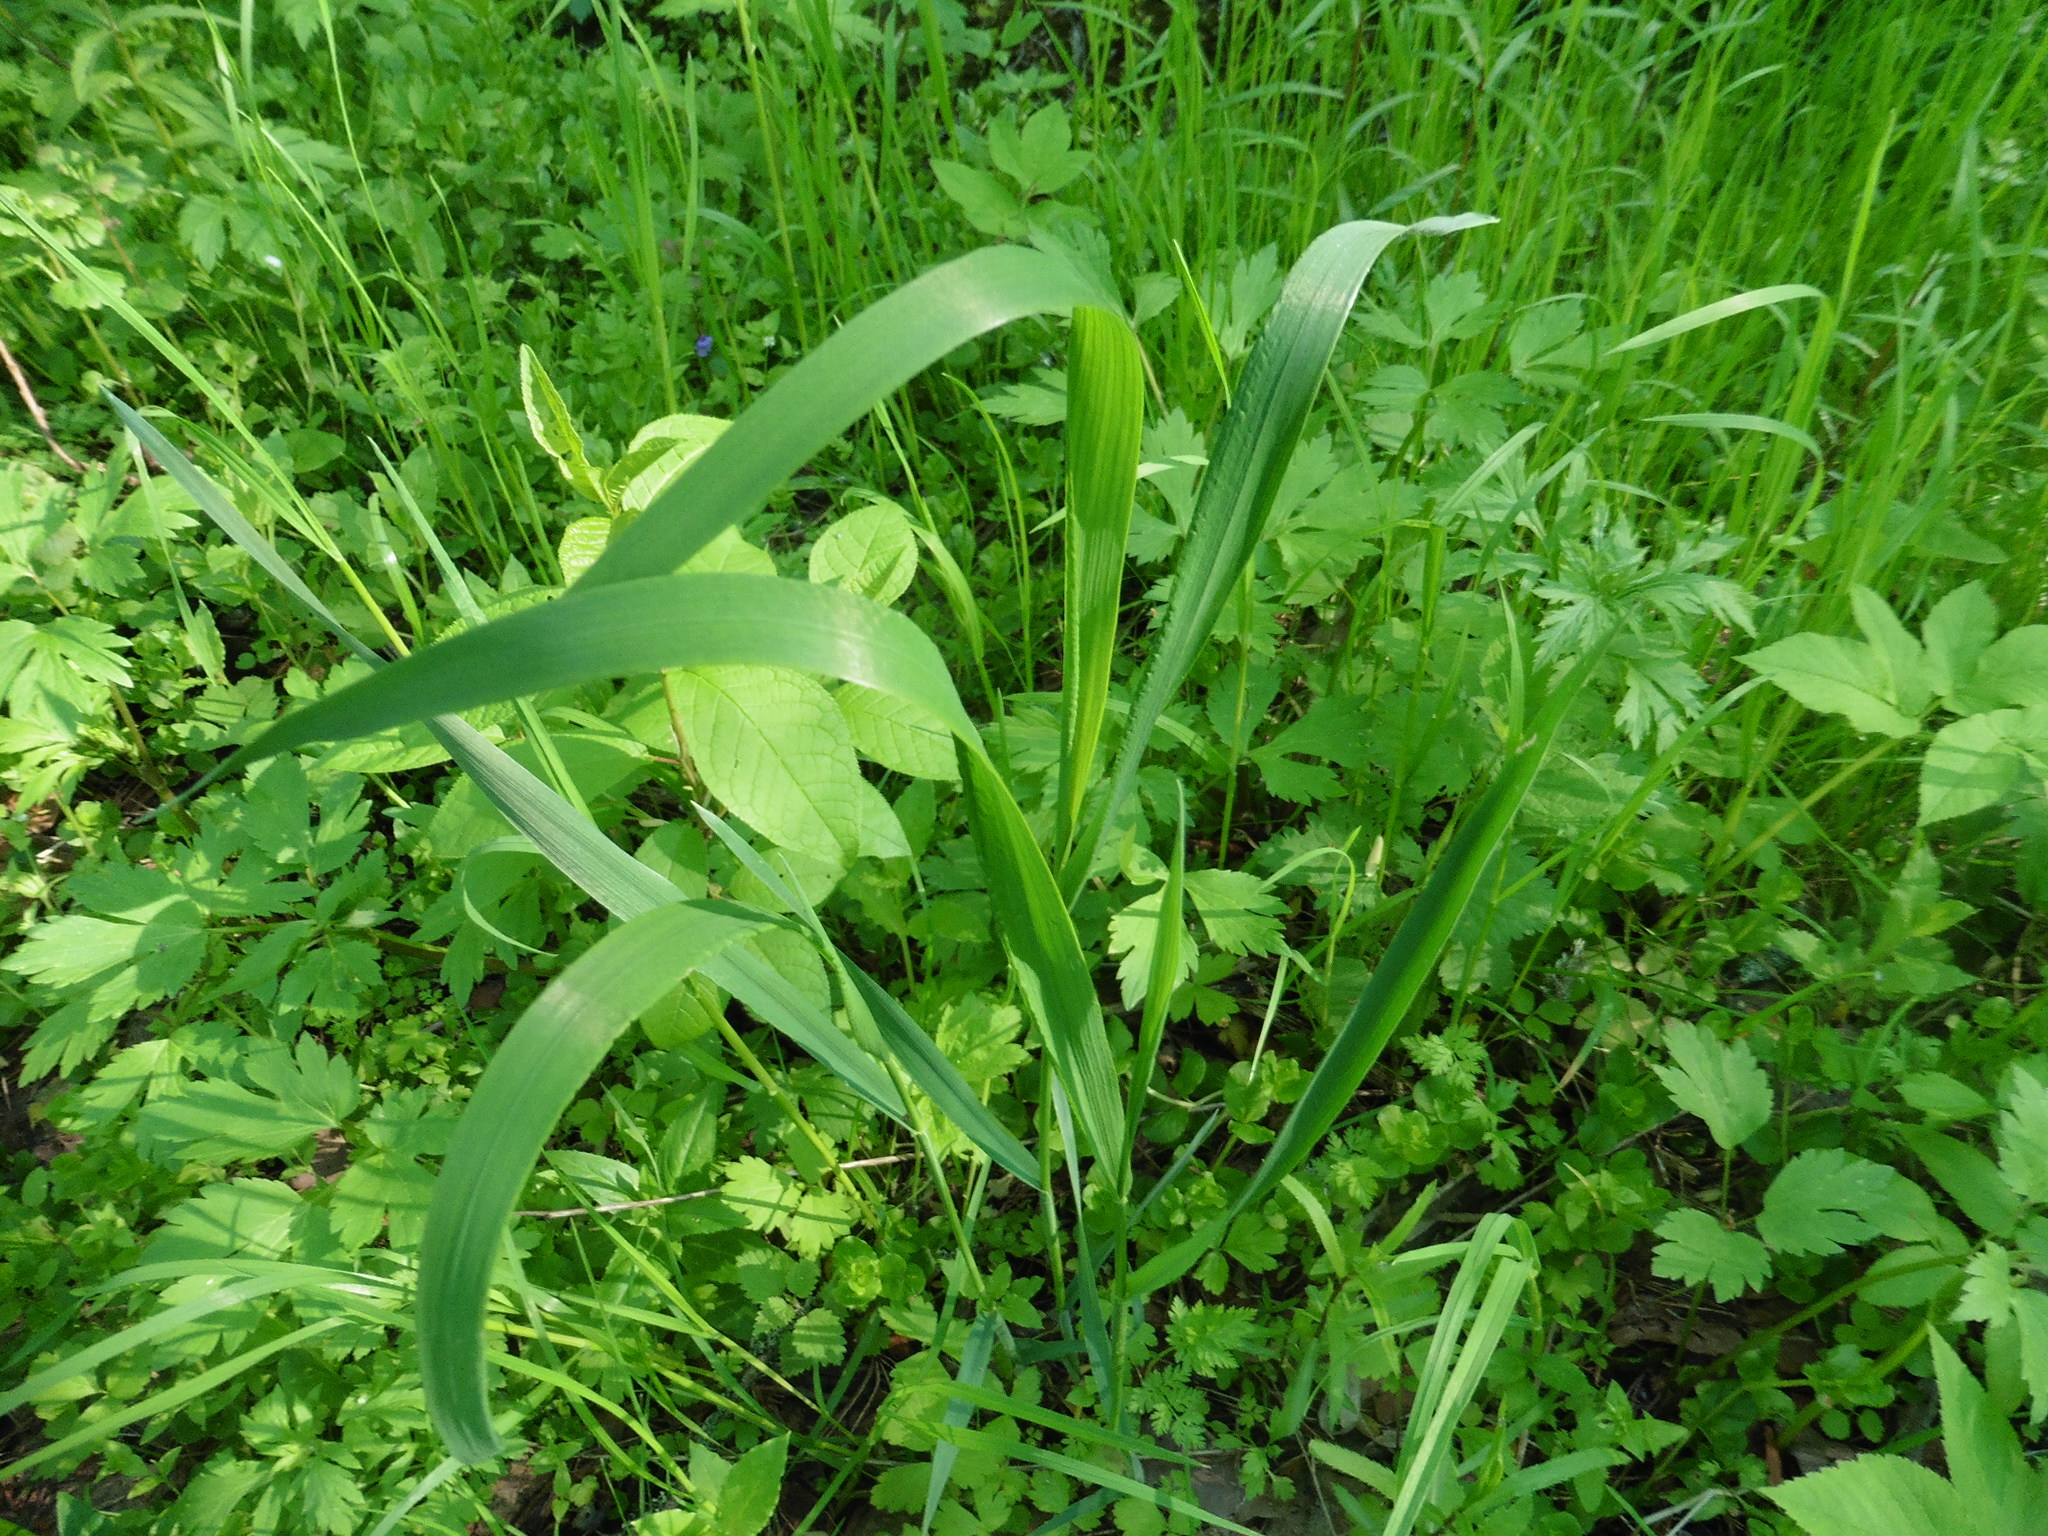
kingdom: Plantae
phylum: Tracheophyta
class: Liliopsida
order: Poales
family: Poaceae
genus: Milium
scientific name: Milium effusum
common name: Wood millet
